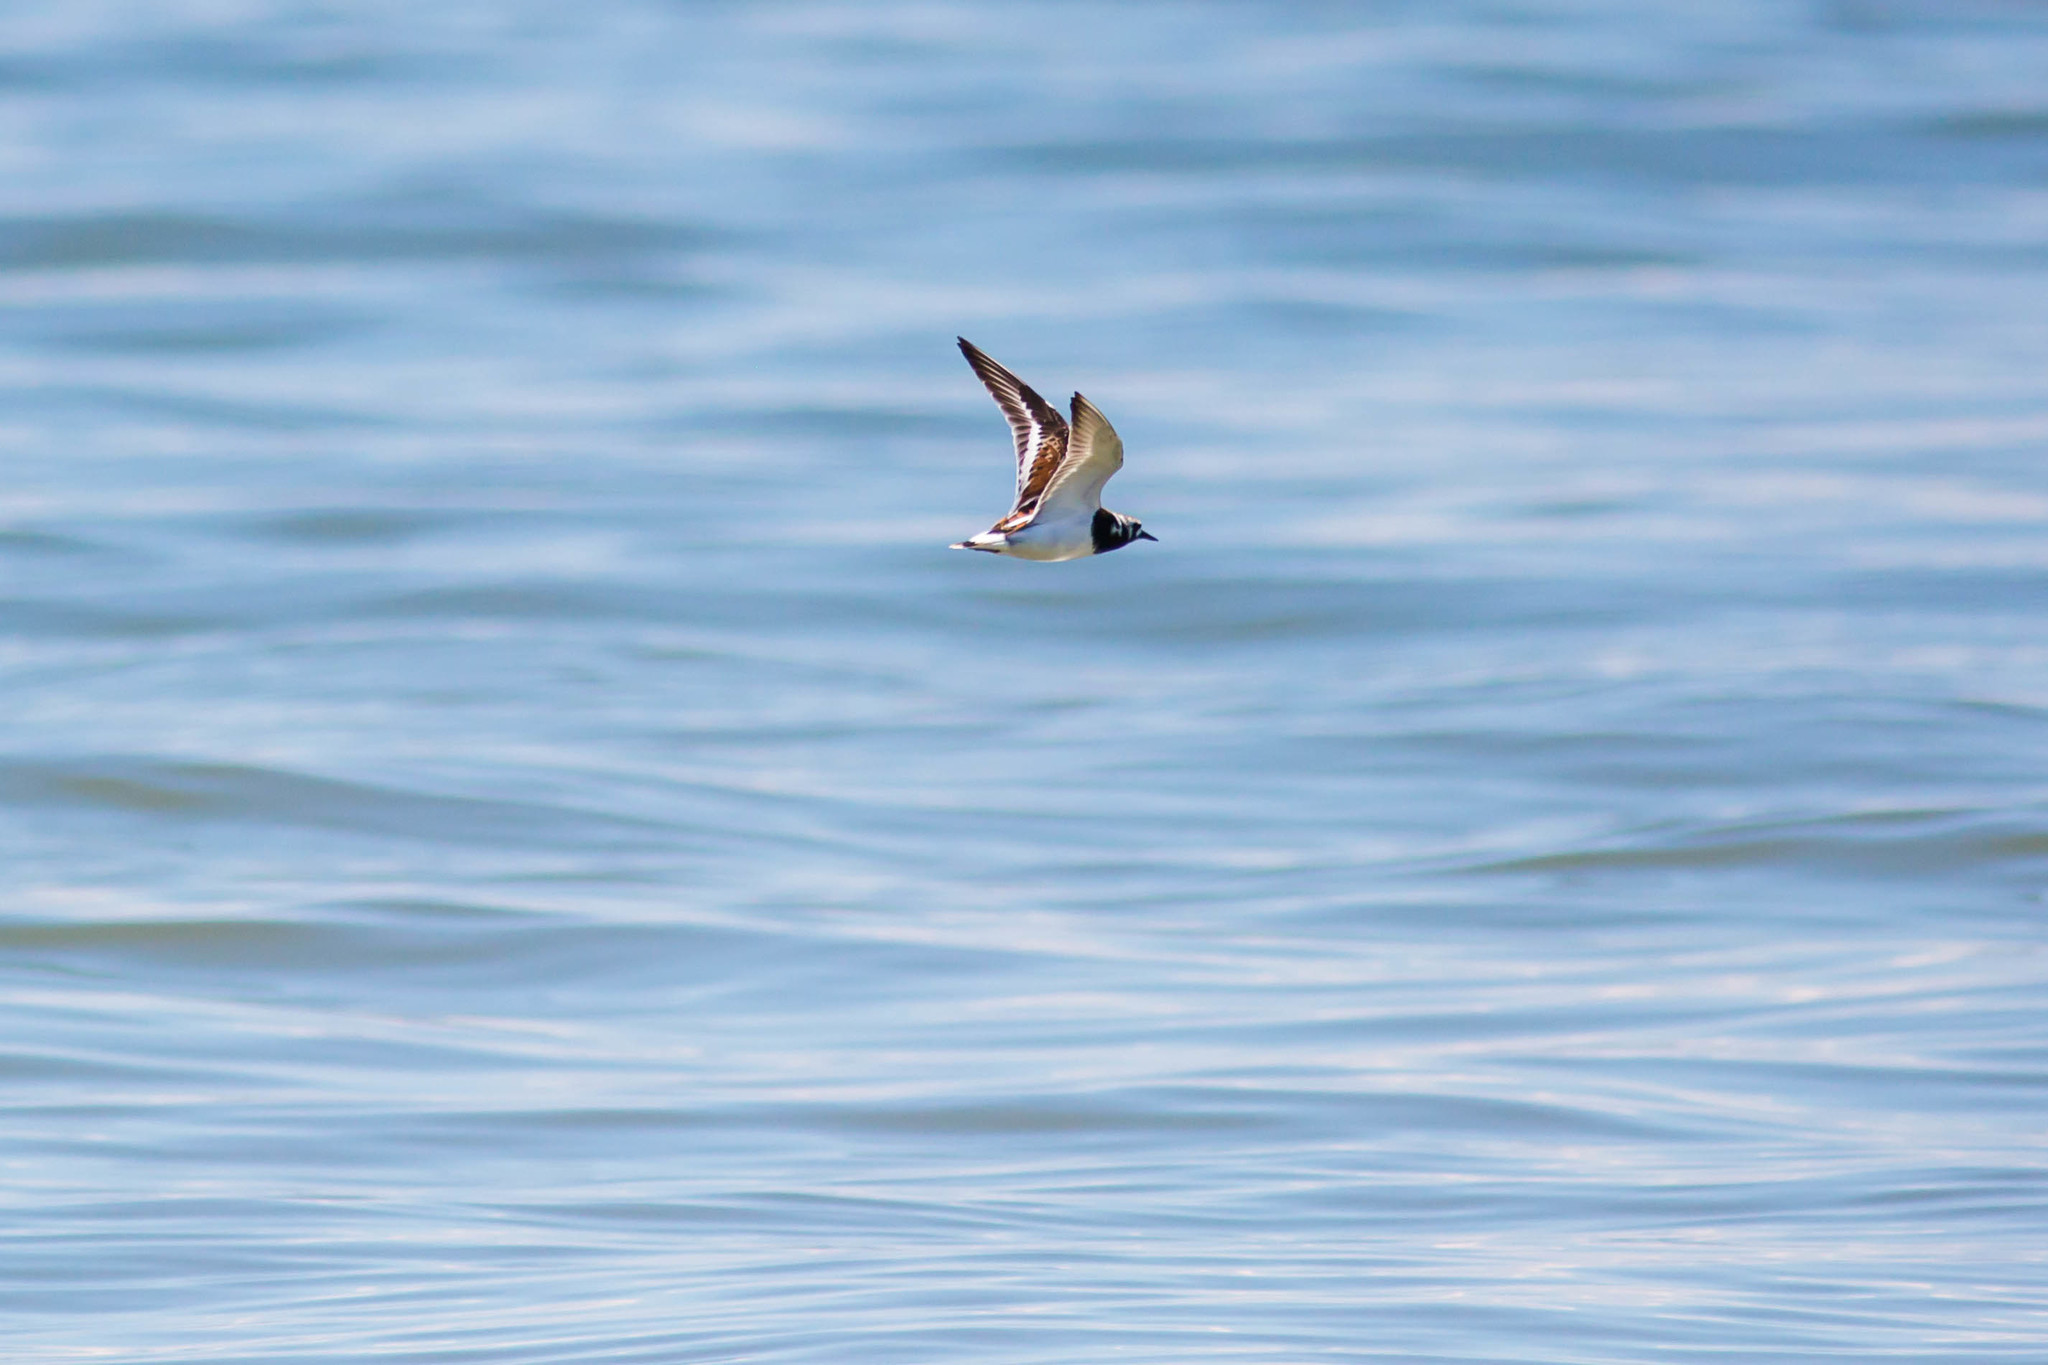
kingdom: Animalia
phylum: Chordata
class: Aves
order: Charadriiformes
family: Scolopacidae
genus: Arenaria
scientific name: Arenaria interpres
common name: Ruddy turnstone
